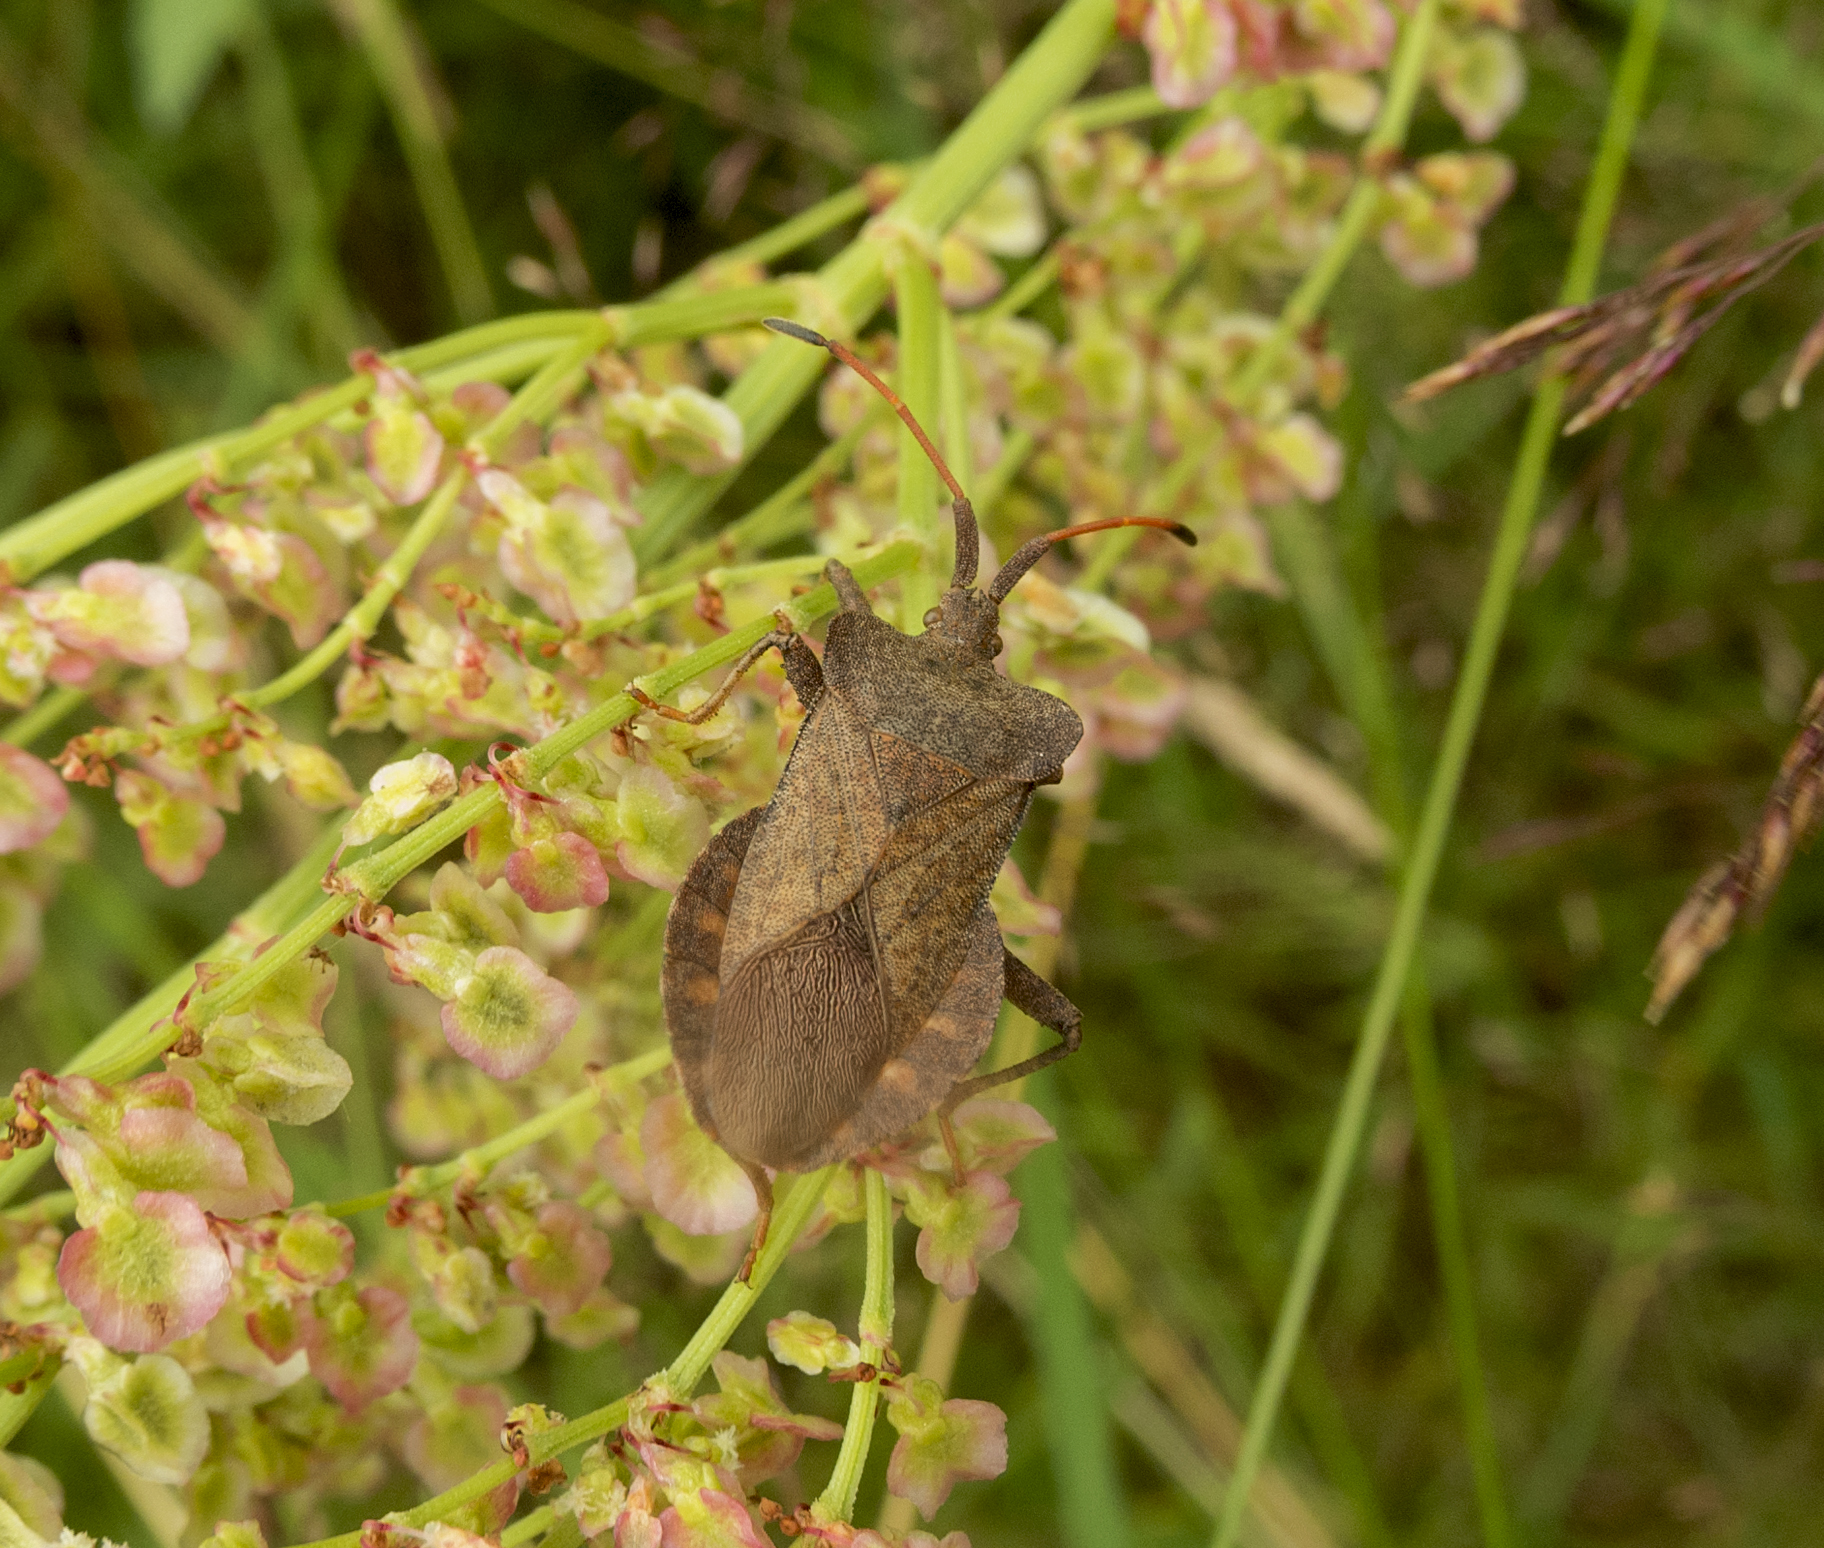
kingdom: Animalia
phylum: Arthropoda
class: Insecta
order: Hemiptera
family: Coreidae
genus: Coreus
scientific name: Coreus marginatus
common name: Dock bug
